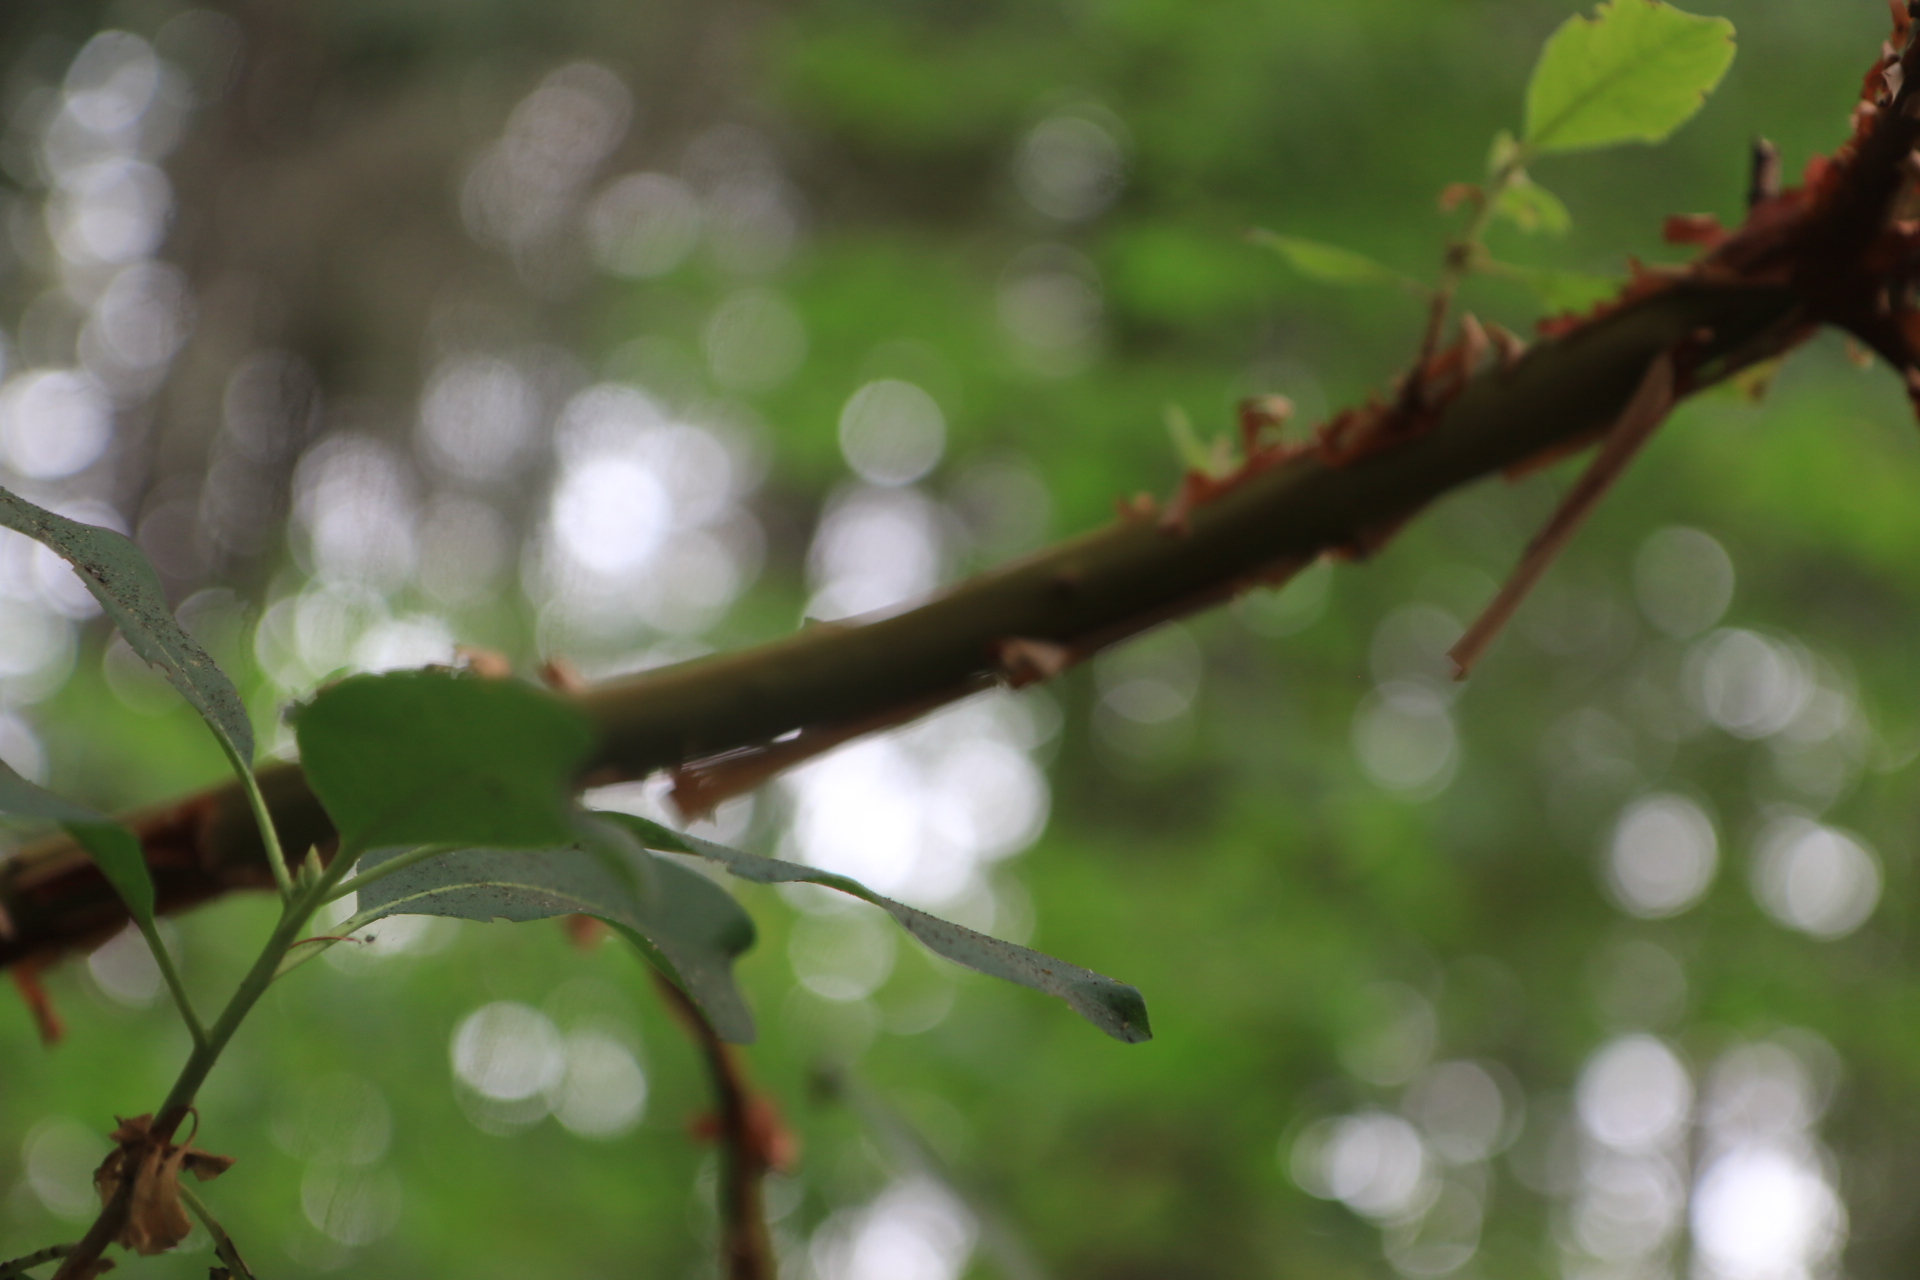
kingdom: Plantae
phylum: Tracheophyta
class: Magnoliopsida
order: Ericales
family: Ericaceae
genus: Arbutus
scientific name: Arbutus menziesii
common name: Pacific madrone
